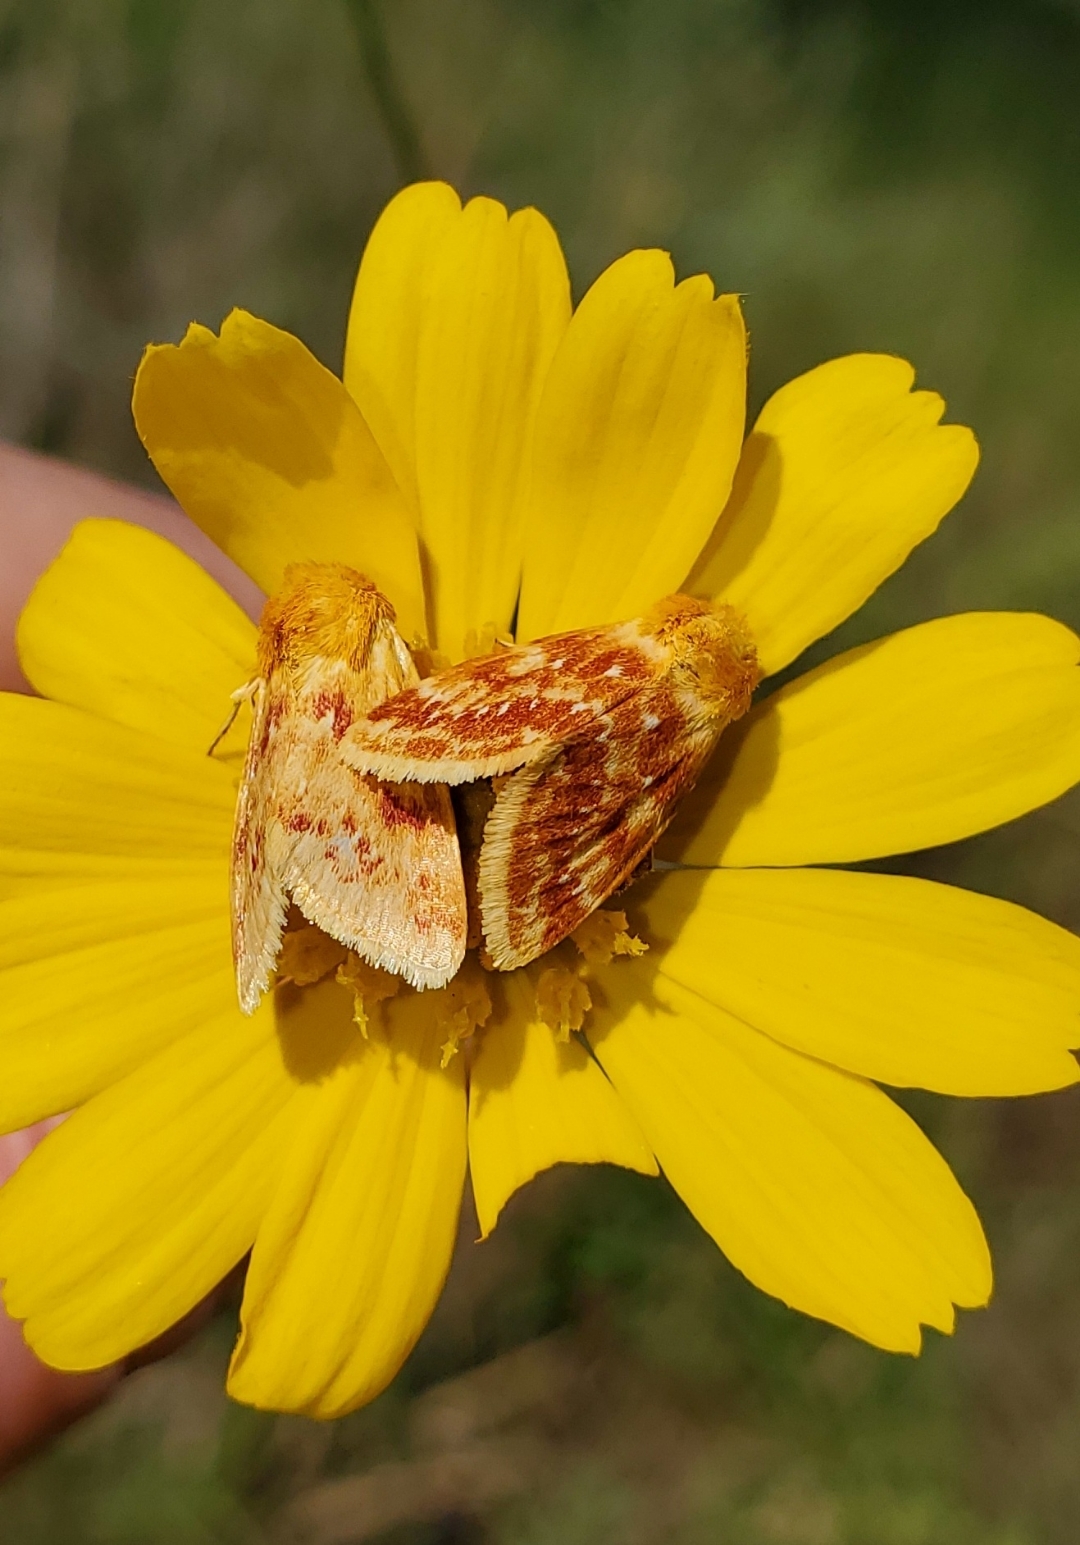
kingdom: Animalia
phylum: Arthropoda
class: Insecta
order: Lepidoptera
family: Noctuidae
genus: Schinia
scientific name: Schinia fulleri
